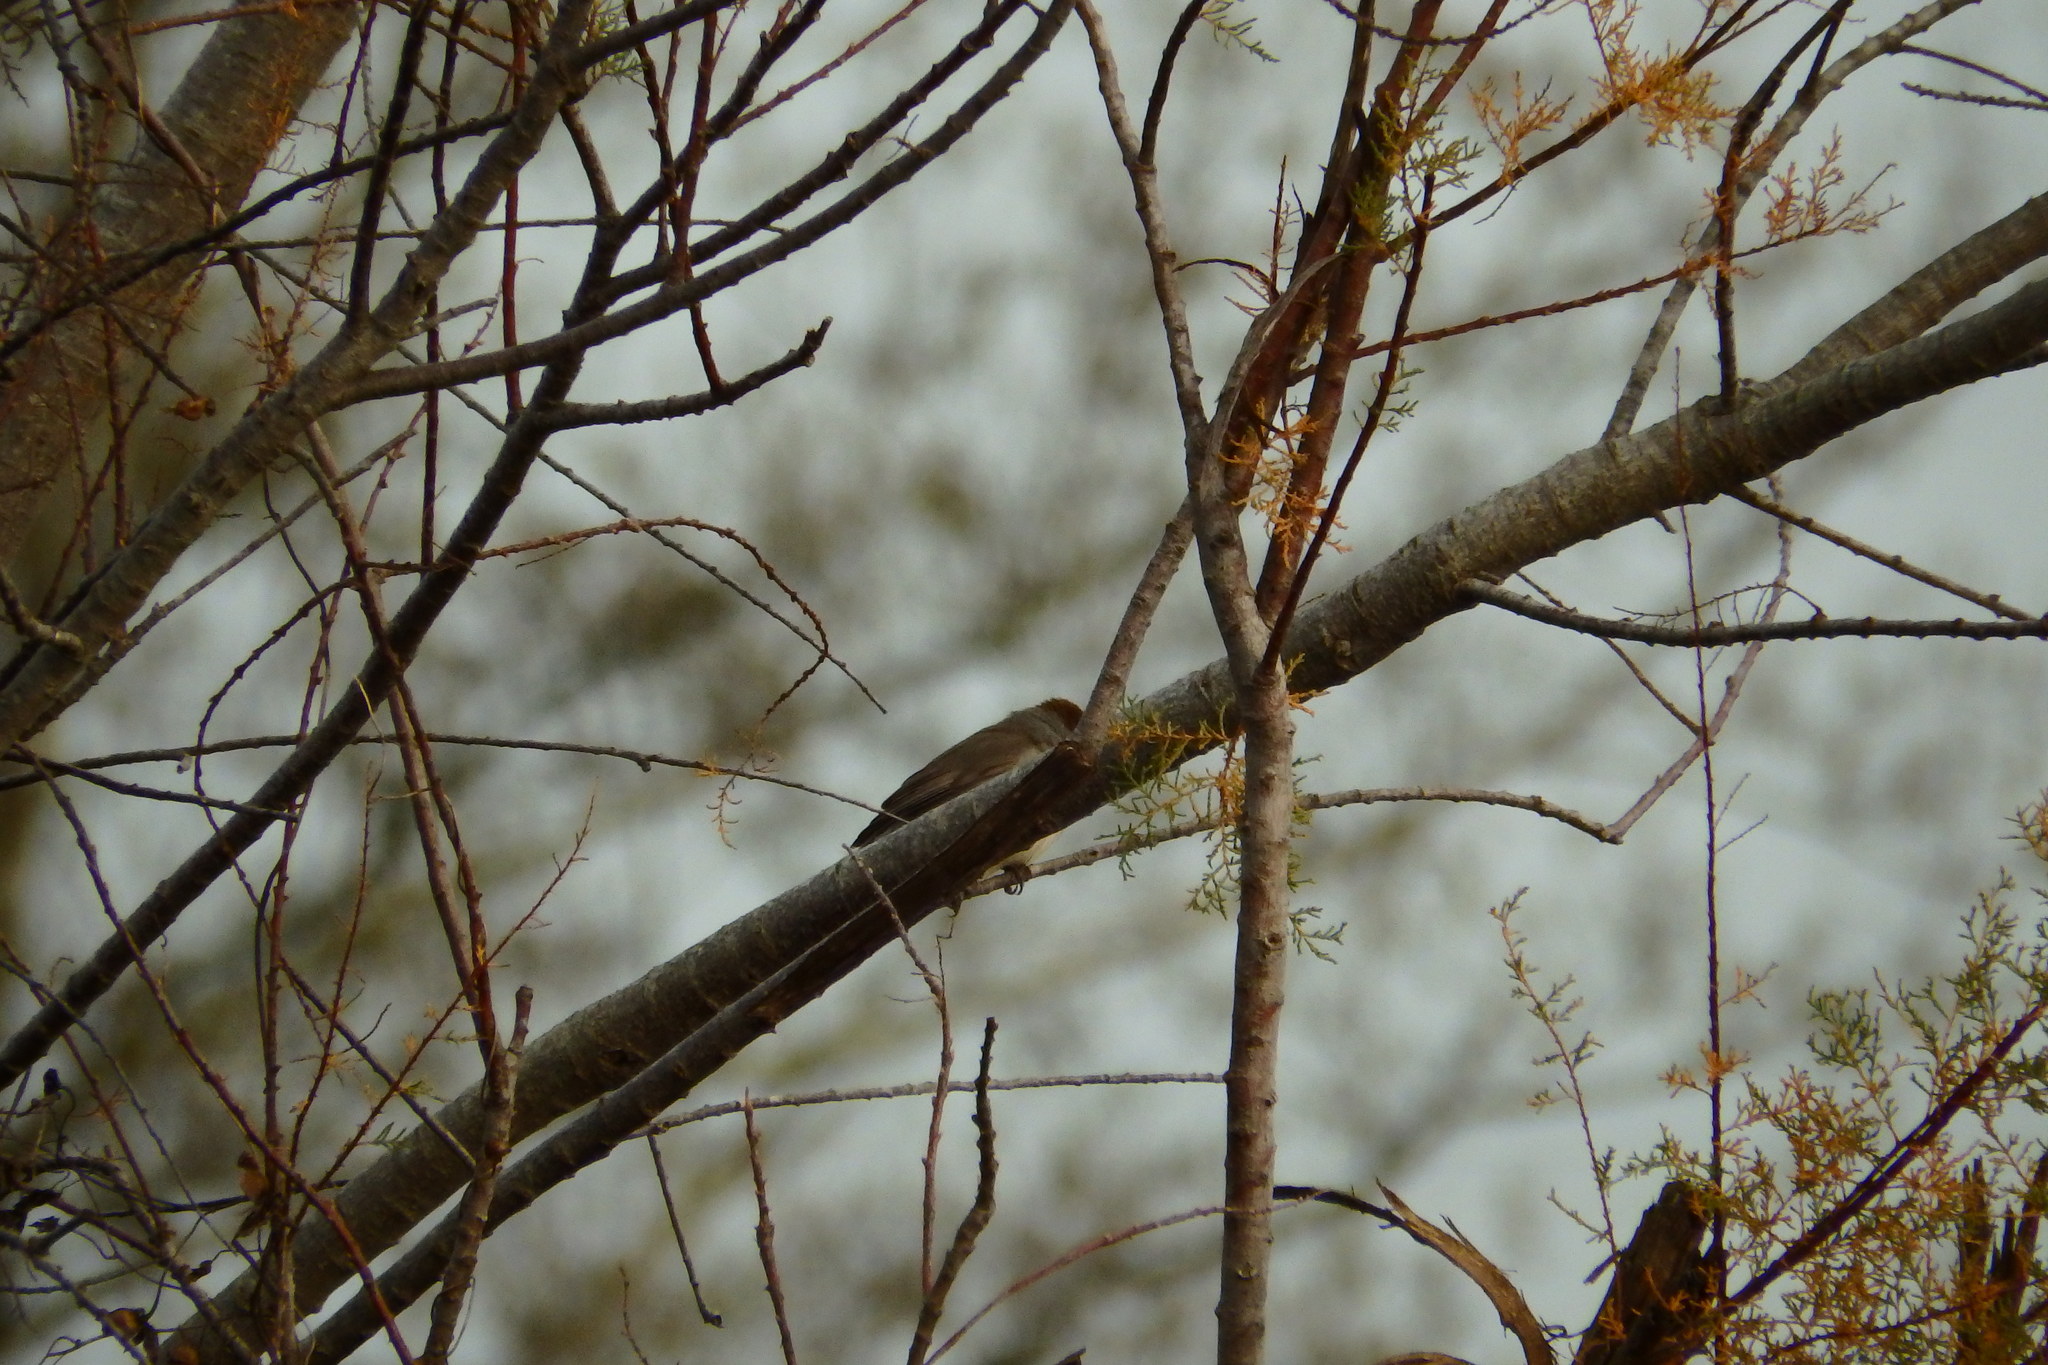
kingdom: Animalia
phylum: Chordata
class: Aves
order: Passeriformes
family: Sylviidae
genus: Sylvia
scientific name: Sylvia atricapilla
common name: Eurasian blackcap
